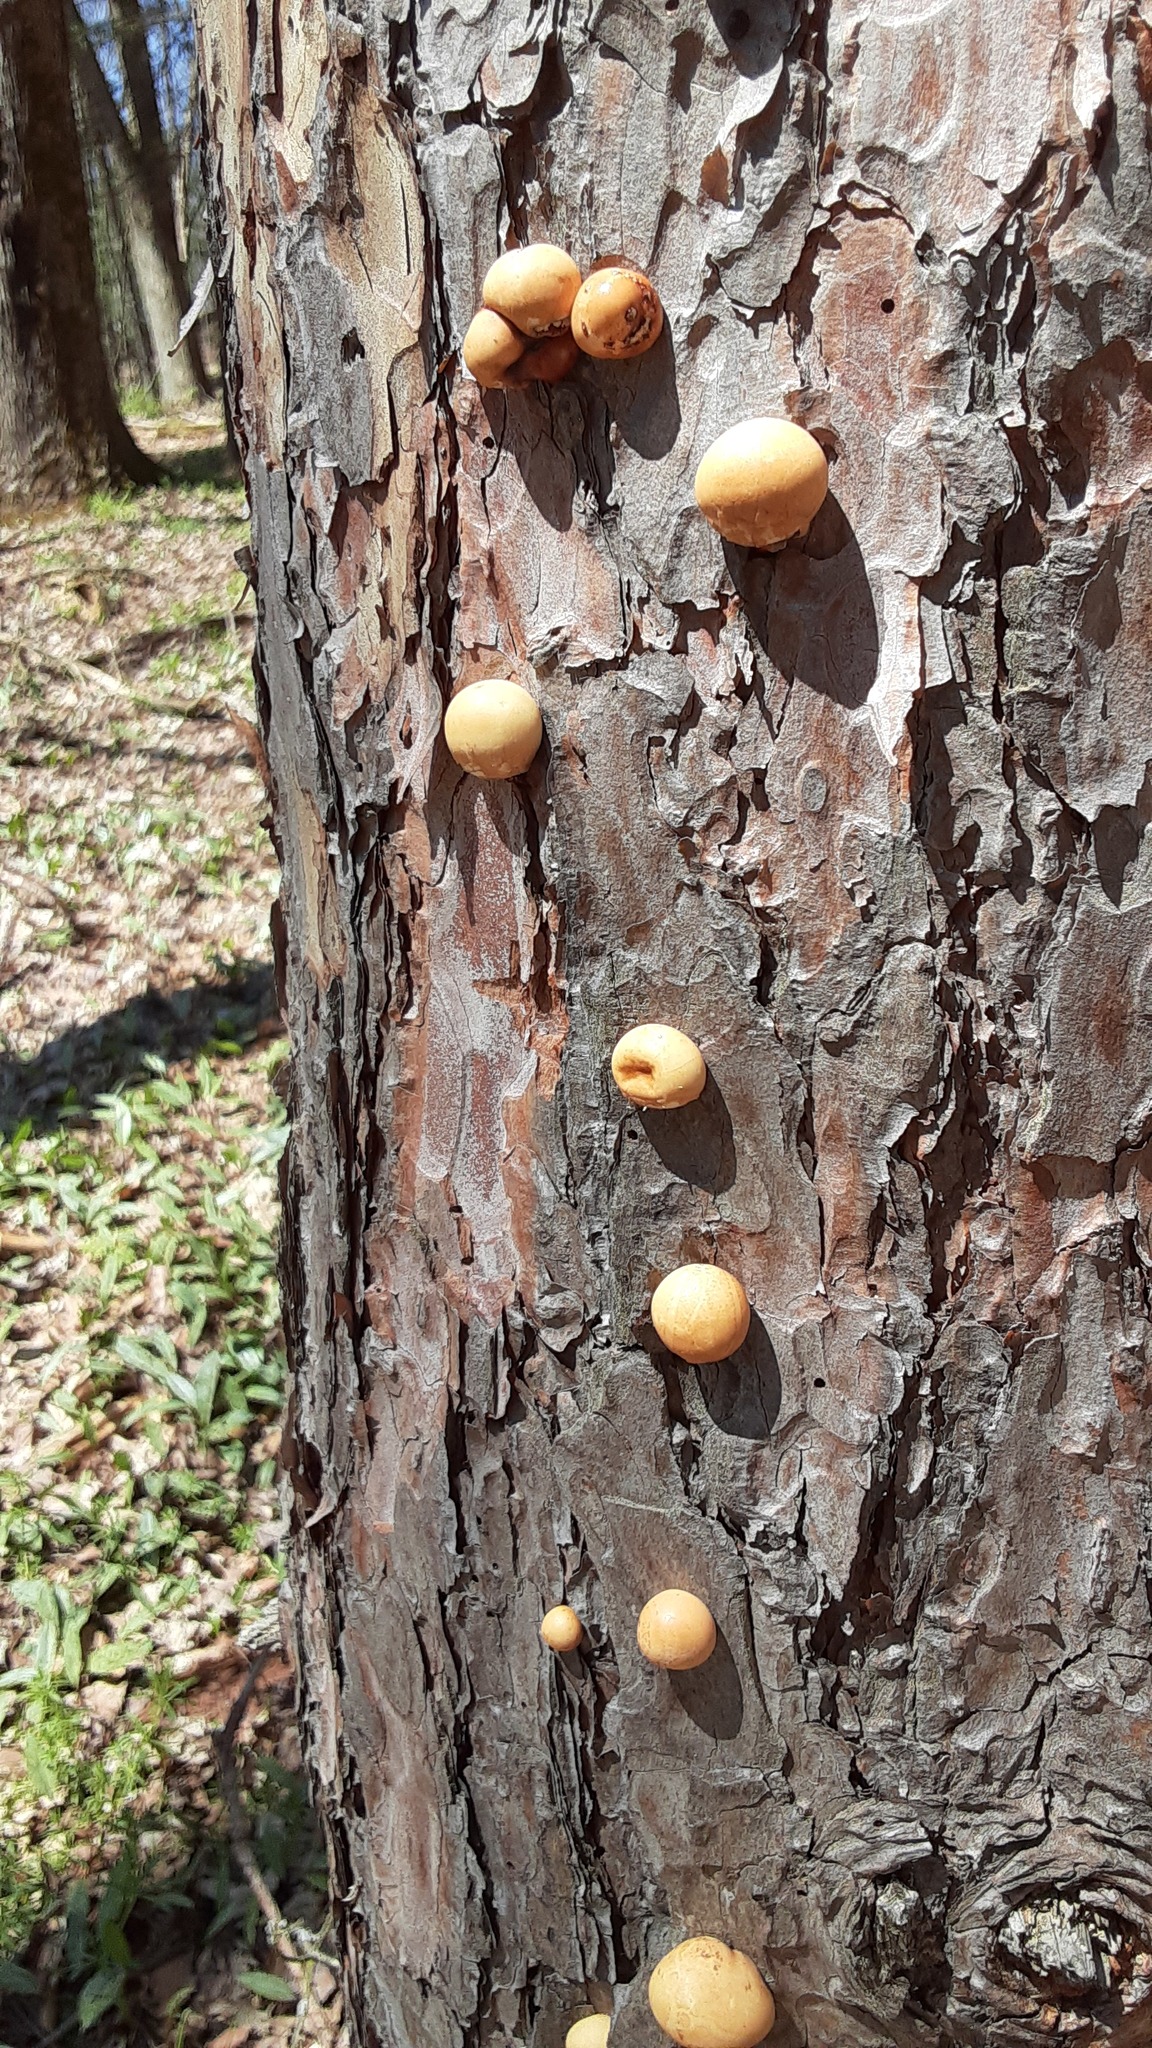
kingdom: Fungi
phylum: Basidiomycota
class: Agaricomycetes
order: Polyporales
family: Polyporaceae
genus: Cryptoporus
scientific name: Cryptoporus volvatus
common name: Veiled polypore
